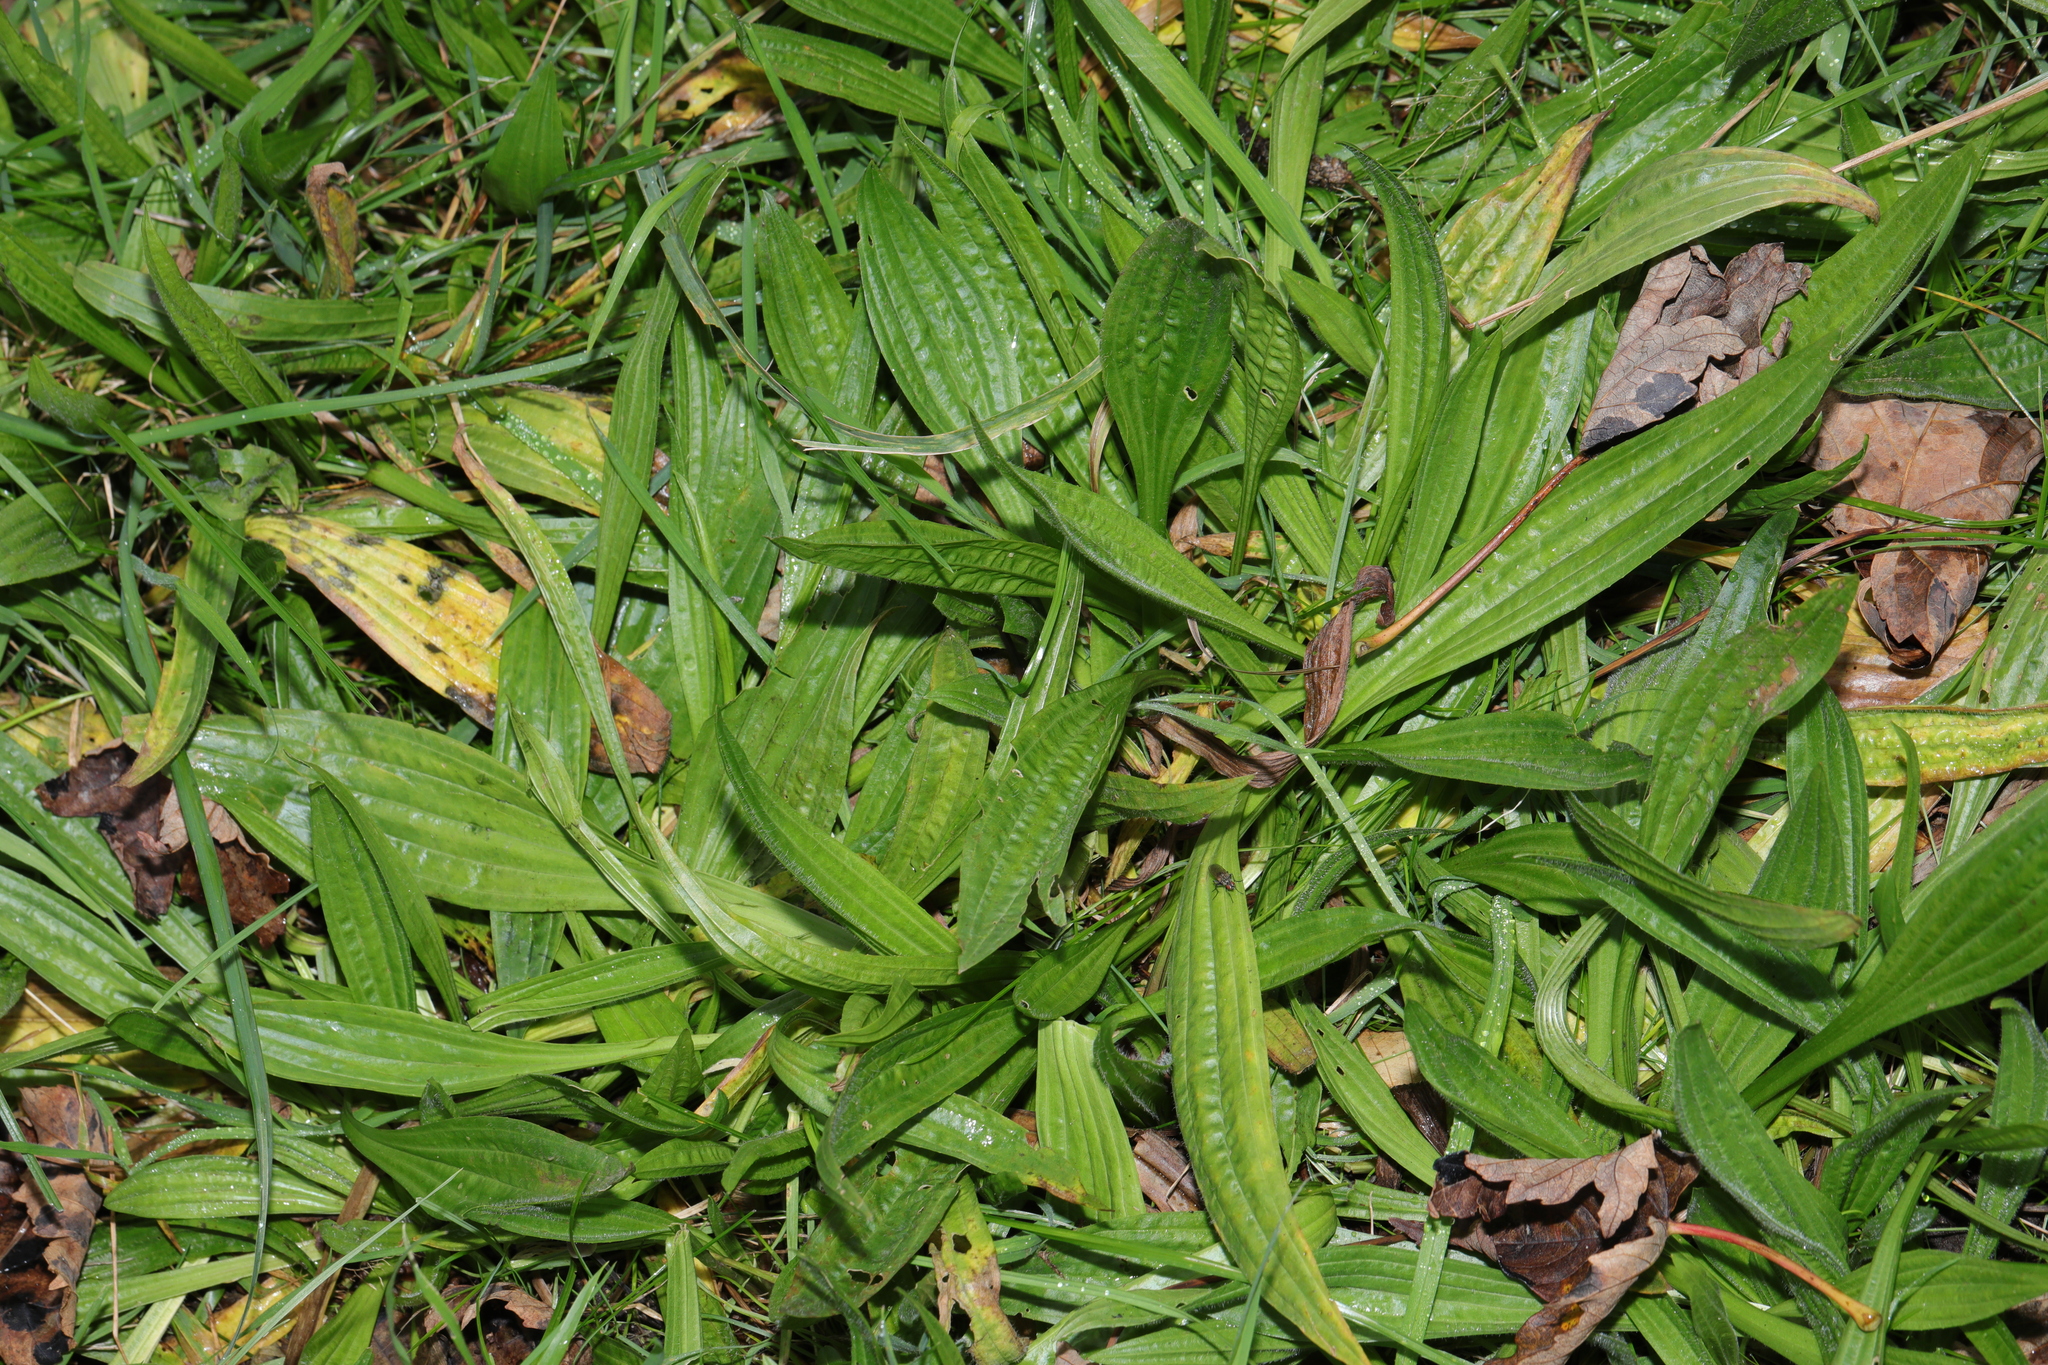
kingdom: Plantae
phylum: Tracheophyta
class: Magnoliopsida
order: Lamiales
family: Plantaginaceae
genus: Plantago
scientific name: Plantago lanceolata
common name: Ribwort plantain
